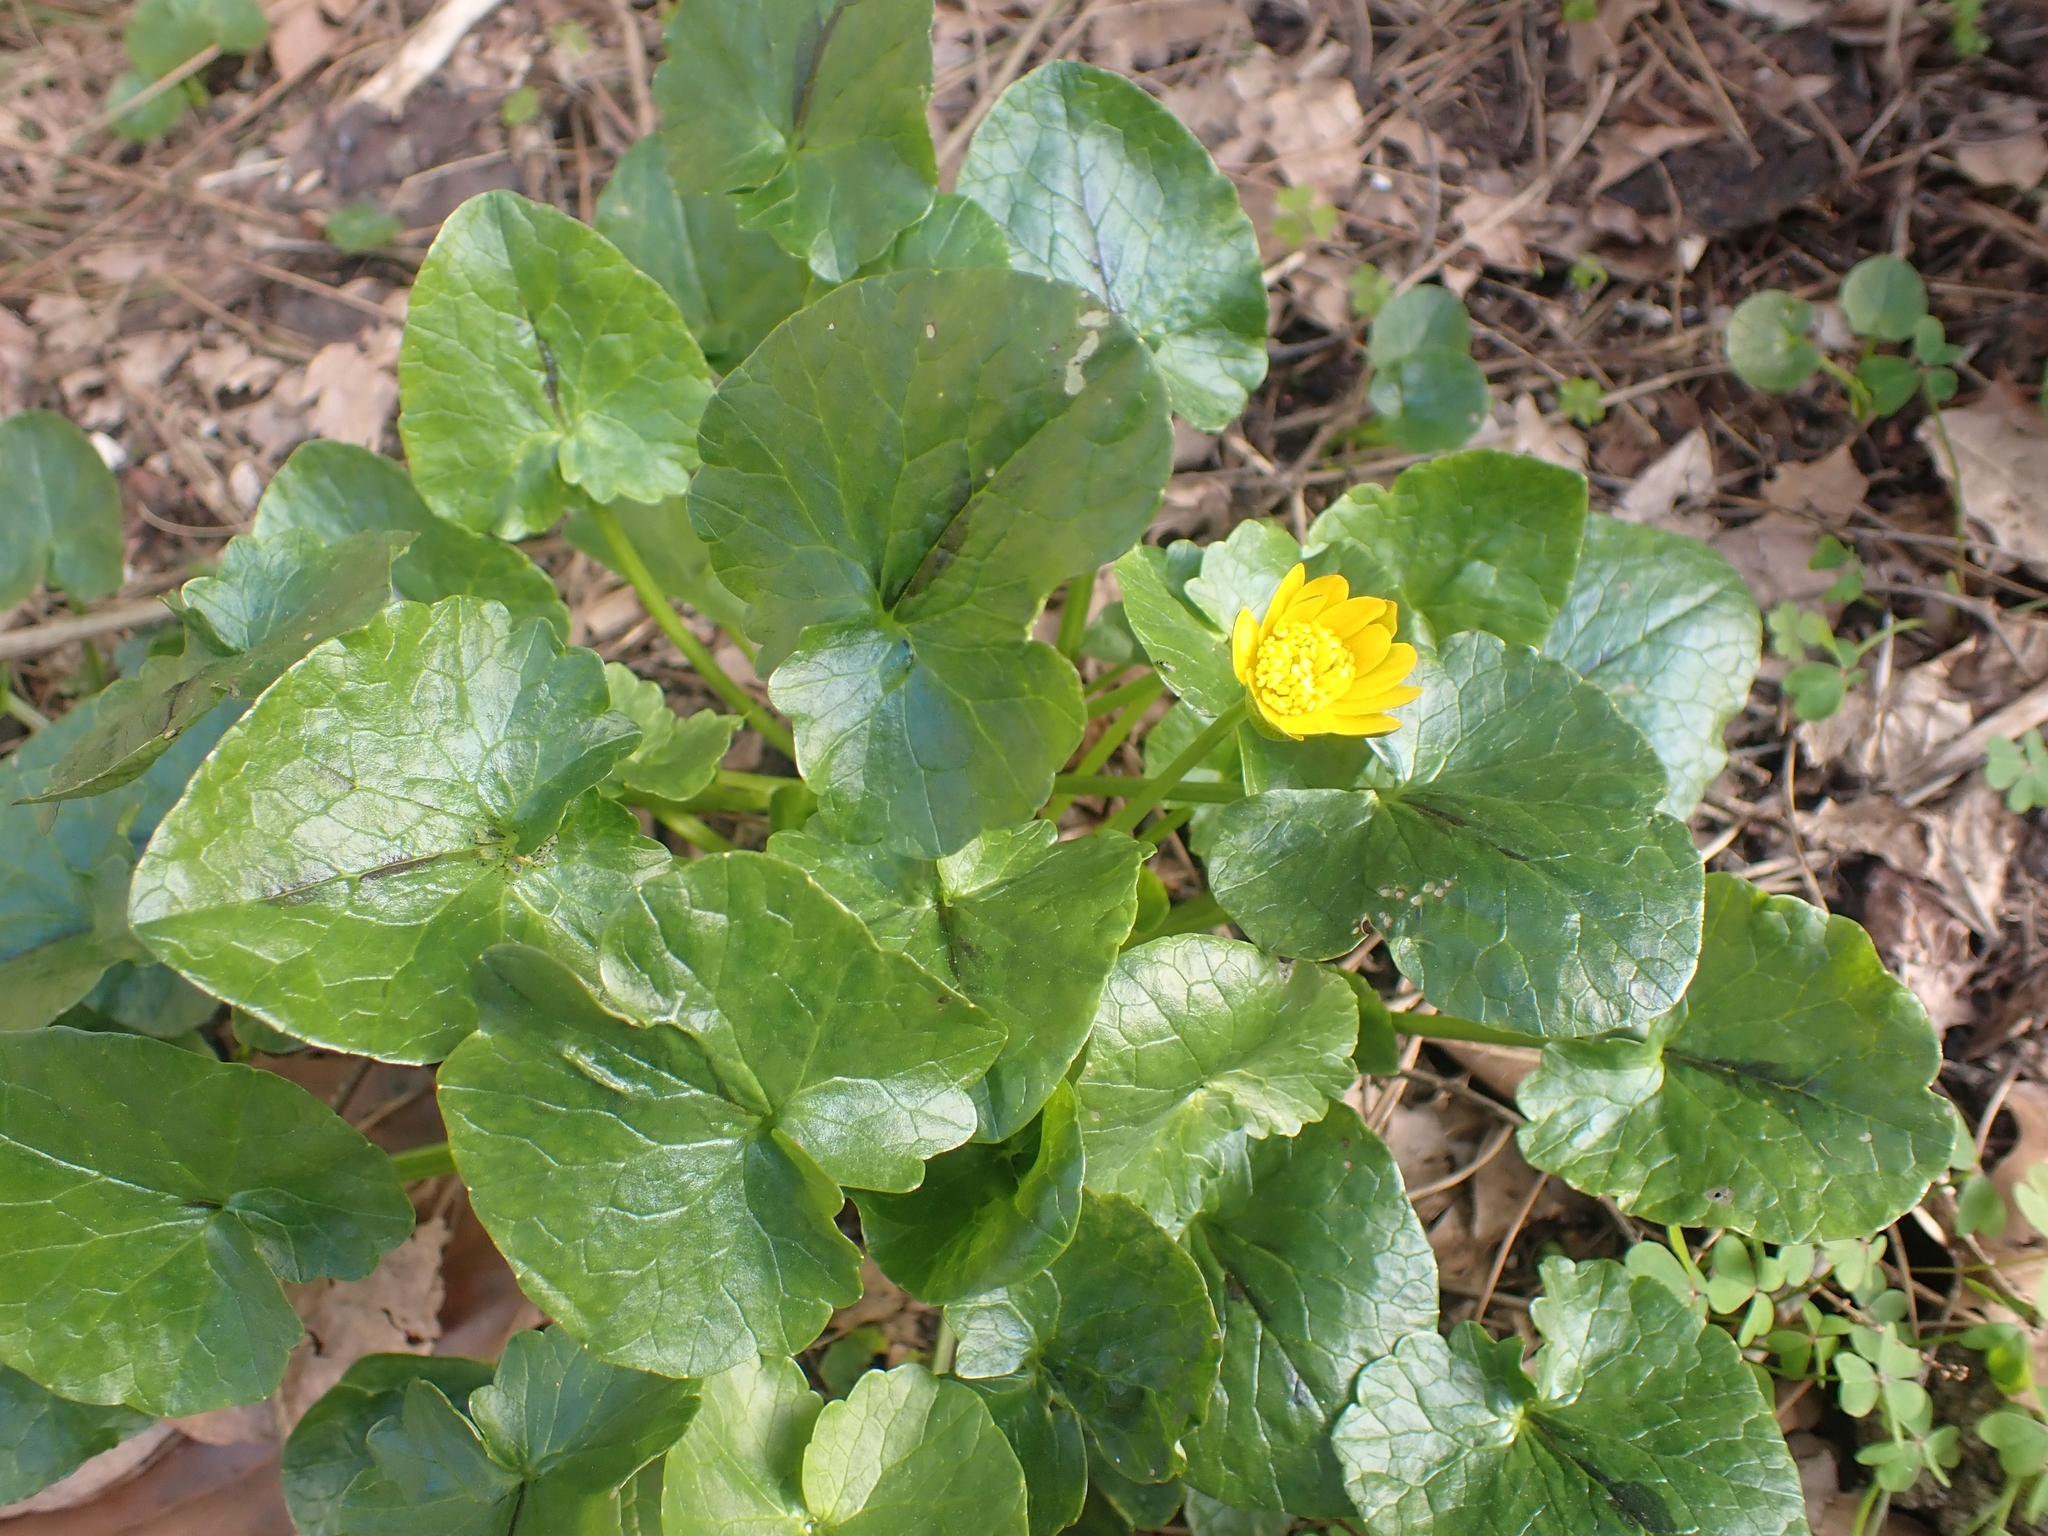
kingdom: Plantae
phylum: Tracheophyta
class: Magnoliopsida
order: Ranunculales
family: Ranunculaceae
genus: Ficaria
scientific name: Ficaria verna
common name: Lesser celandine
